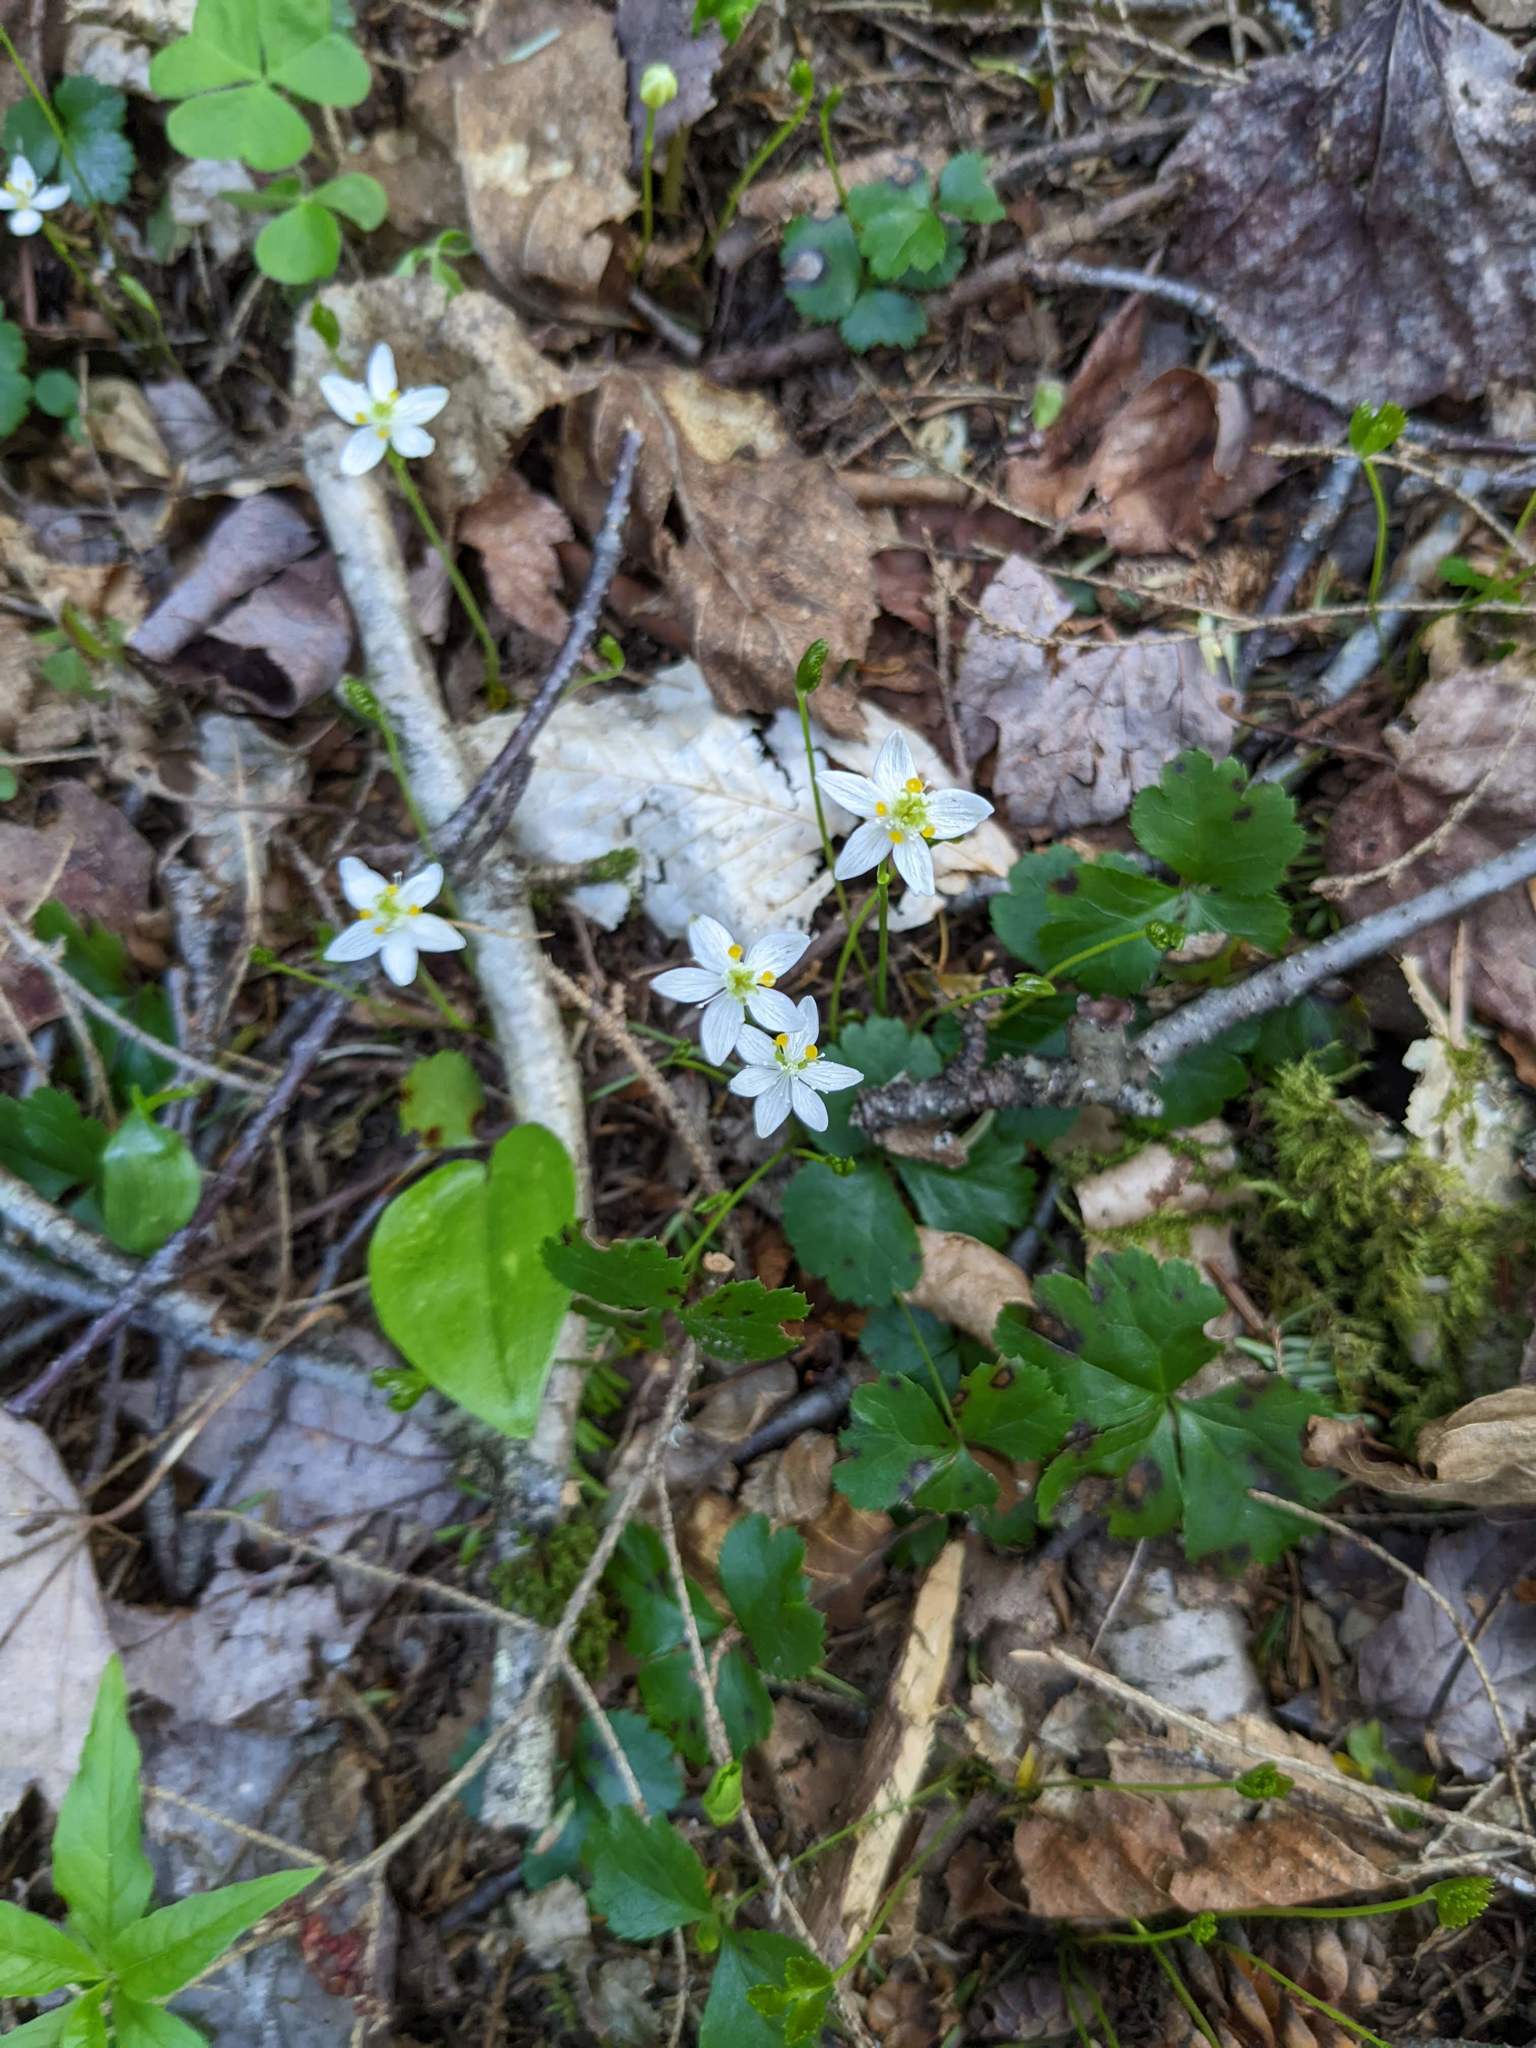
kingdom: Plantae
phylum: Tracheophyta
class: Magnoliopsida
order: Ranunculales
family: Ranunculaceae
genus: Coptis
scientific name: Coptis trifolia
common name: Canker-root
